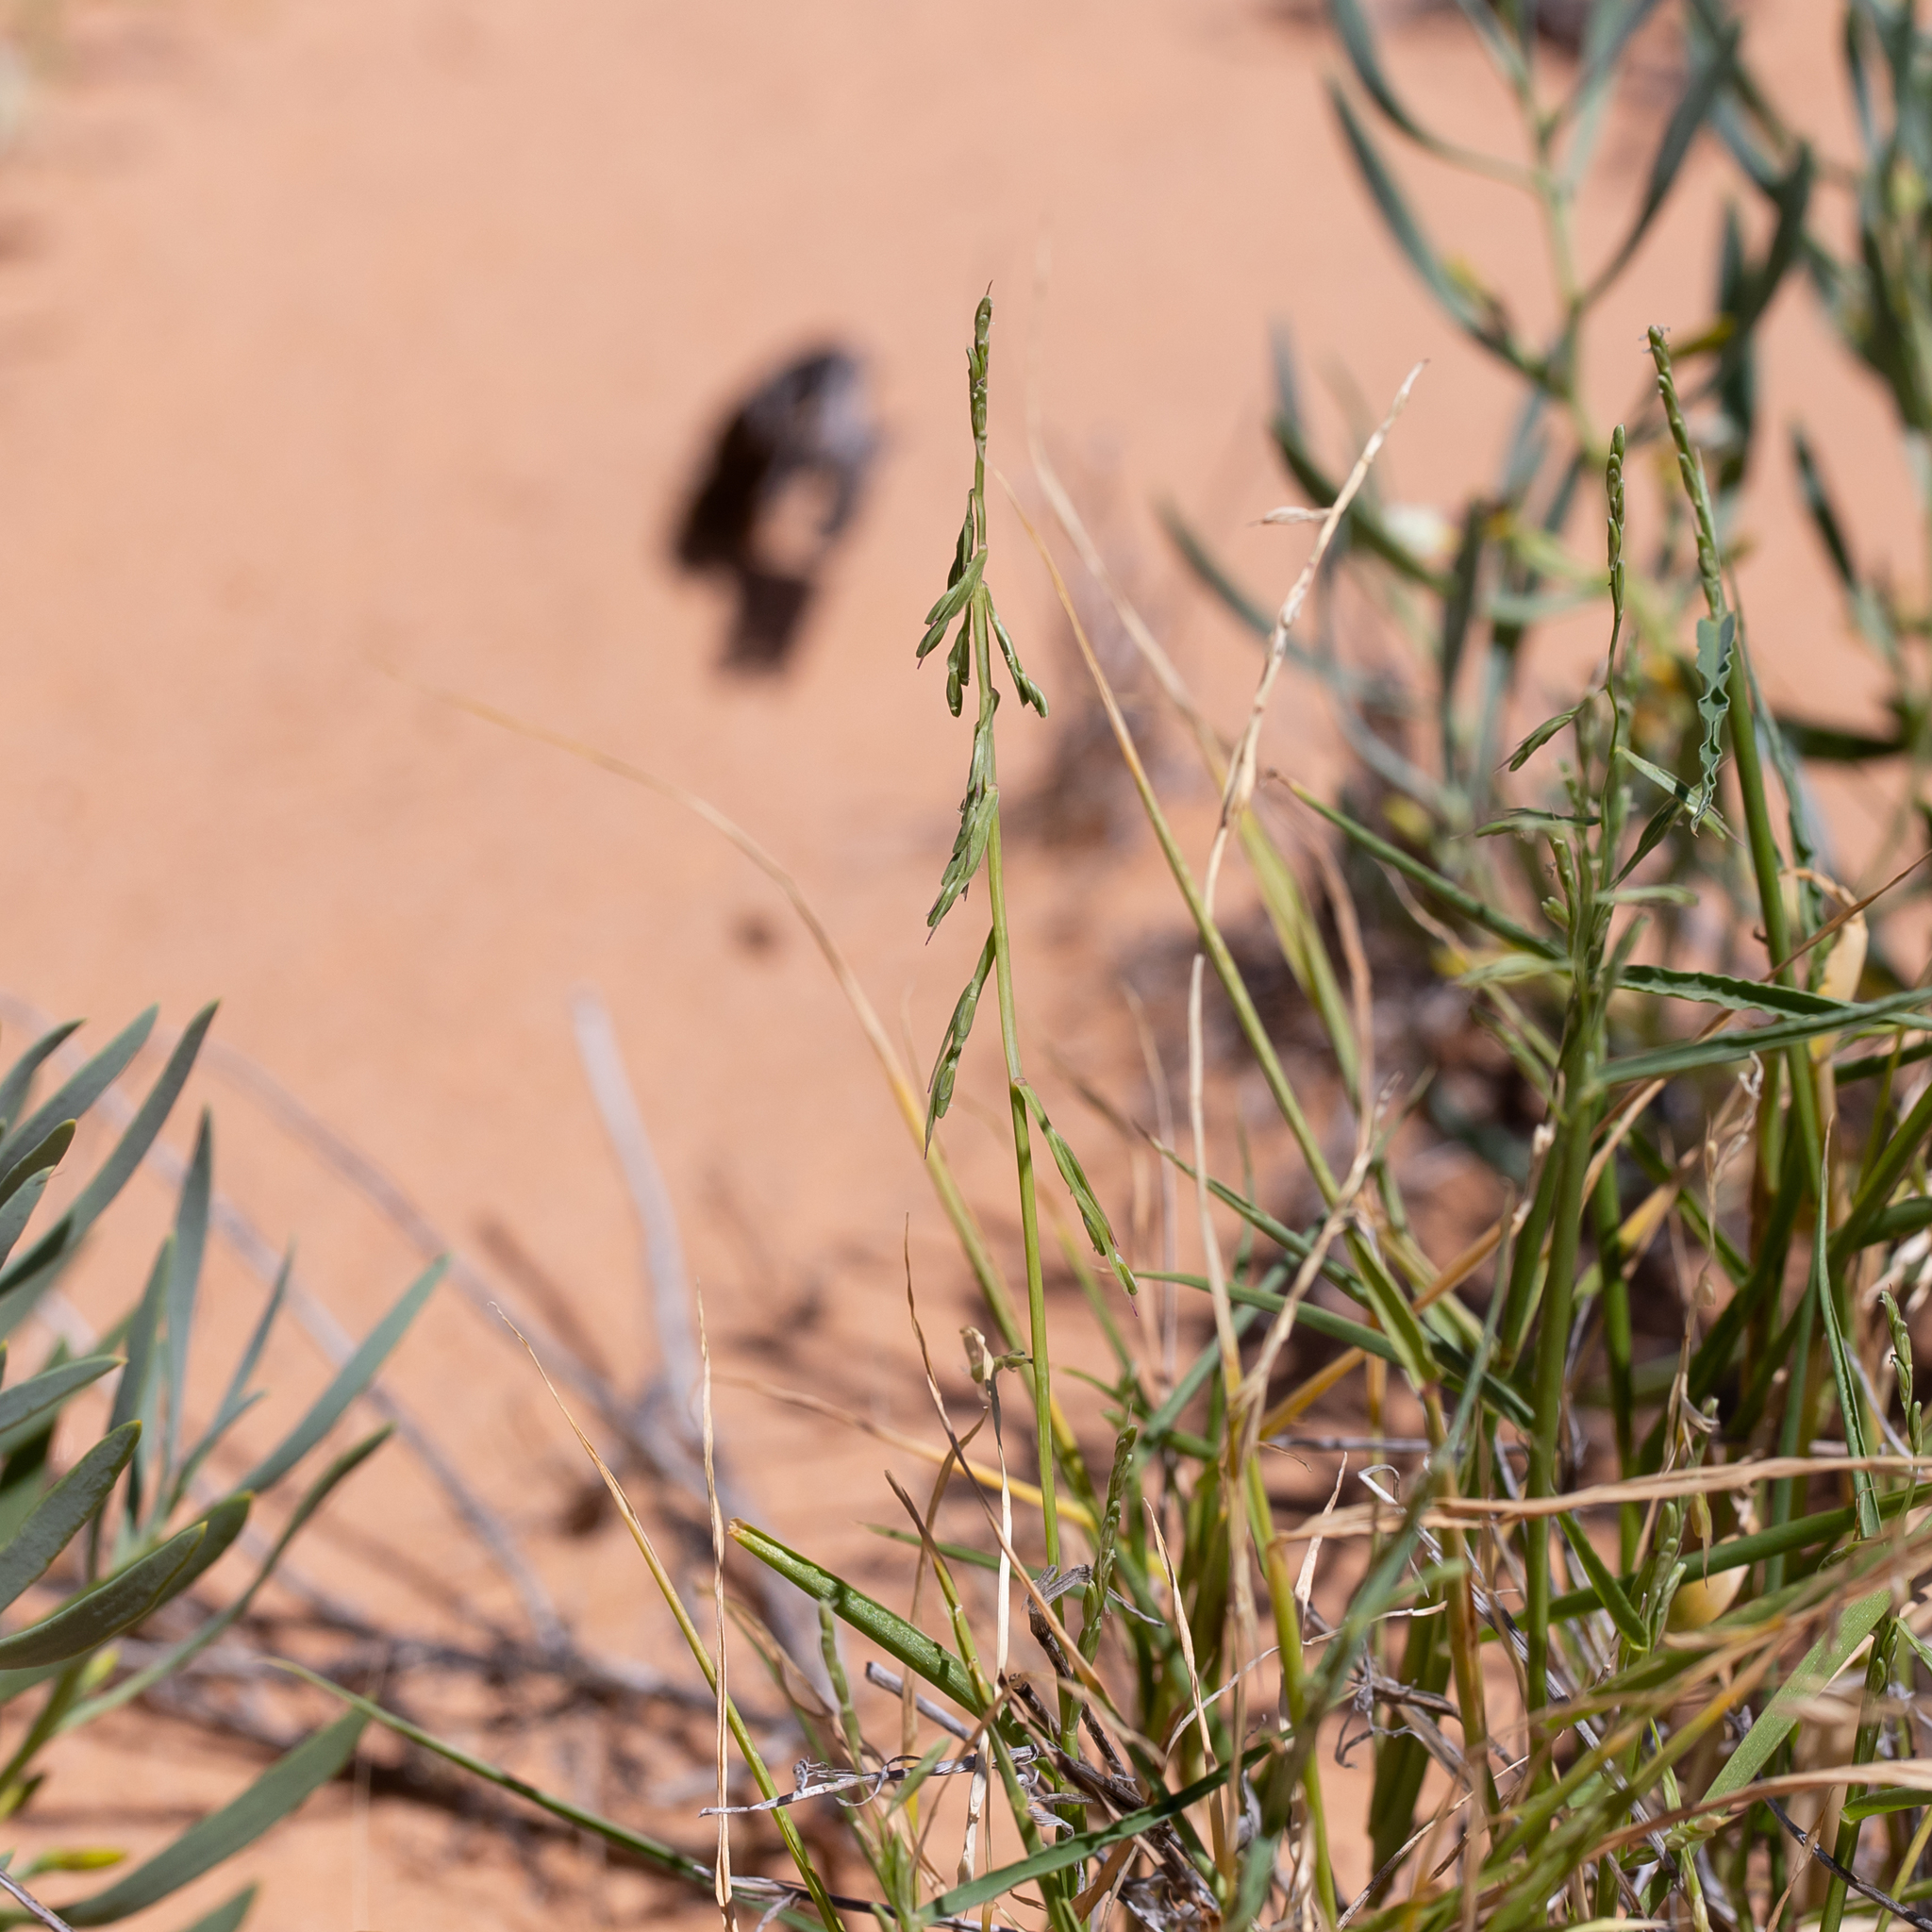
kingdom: Plantae
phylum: Tracheophyta
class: Liliopsida
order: Poales
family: Poaceae
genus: Paractaenum
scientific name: Paractaenum novae-hollandiae
